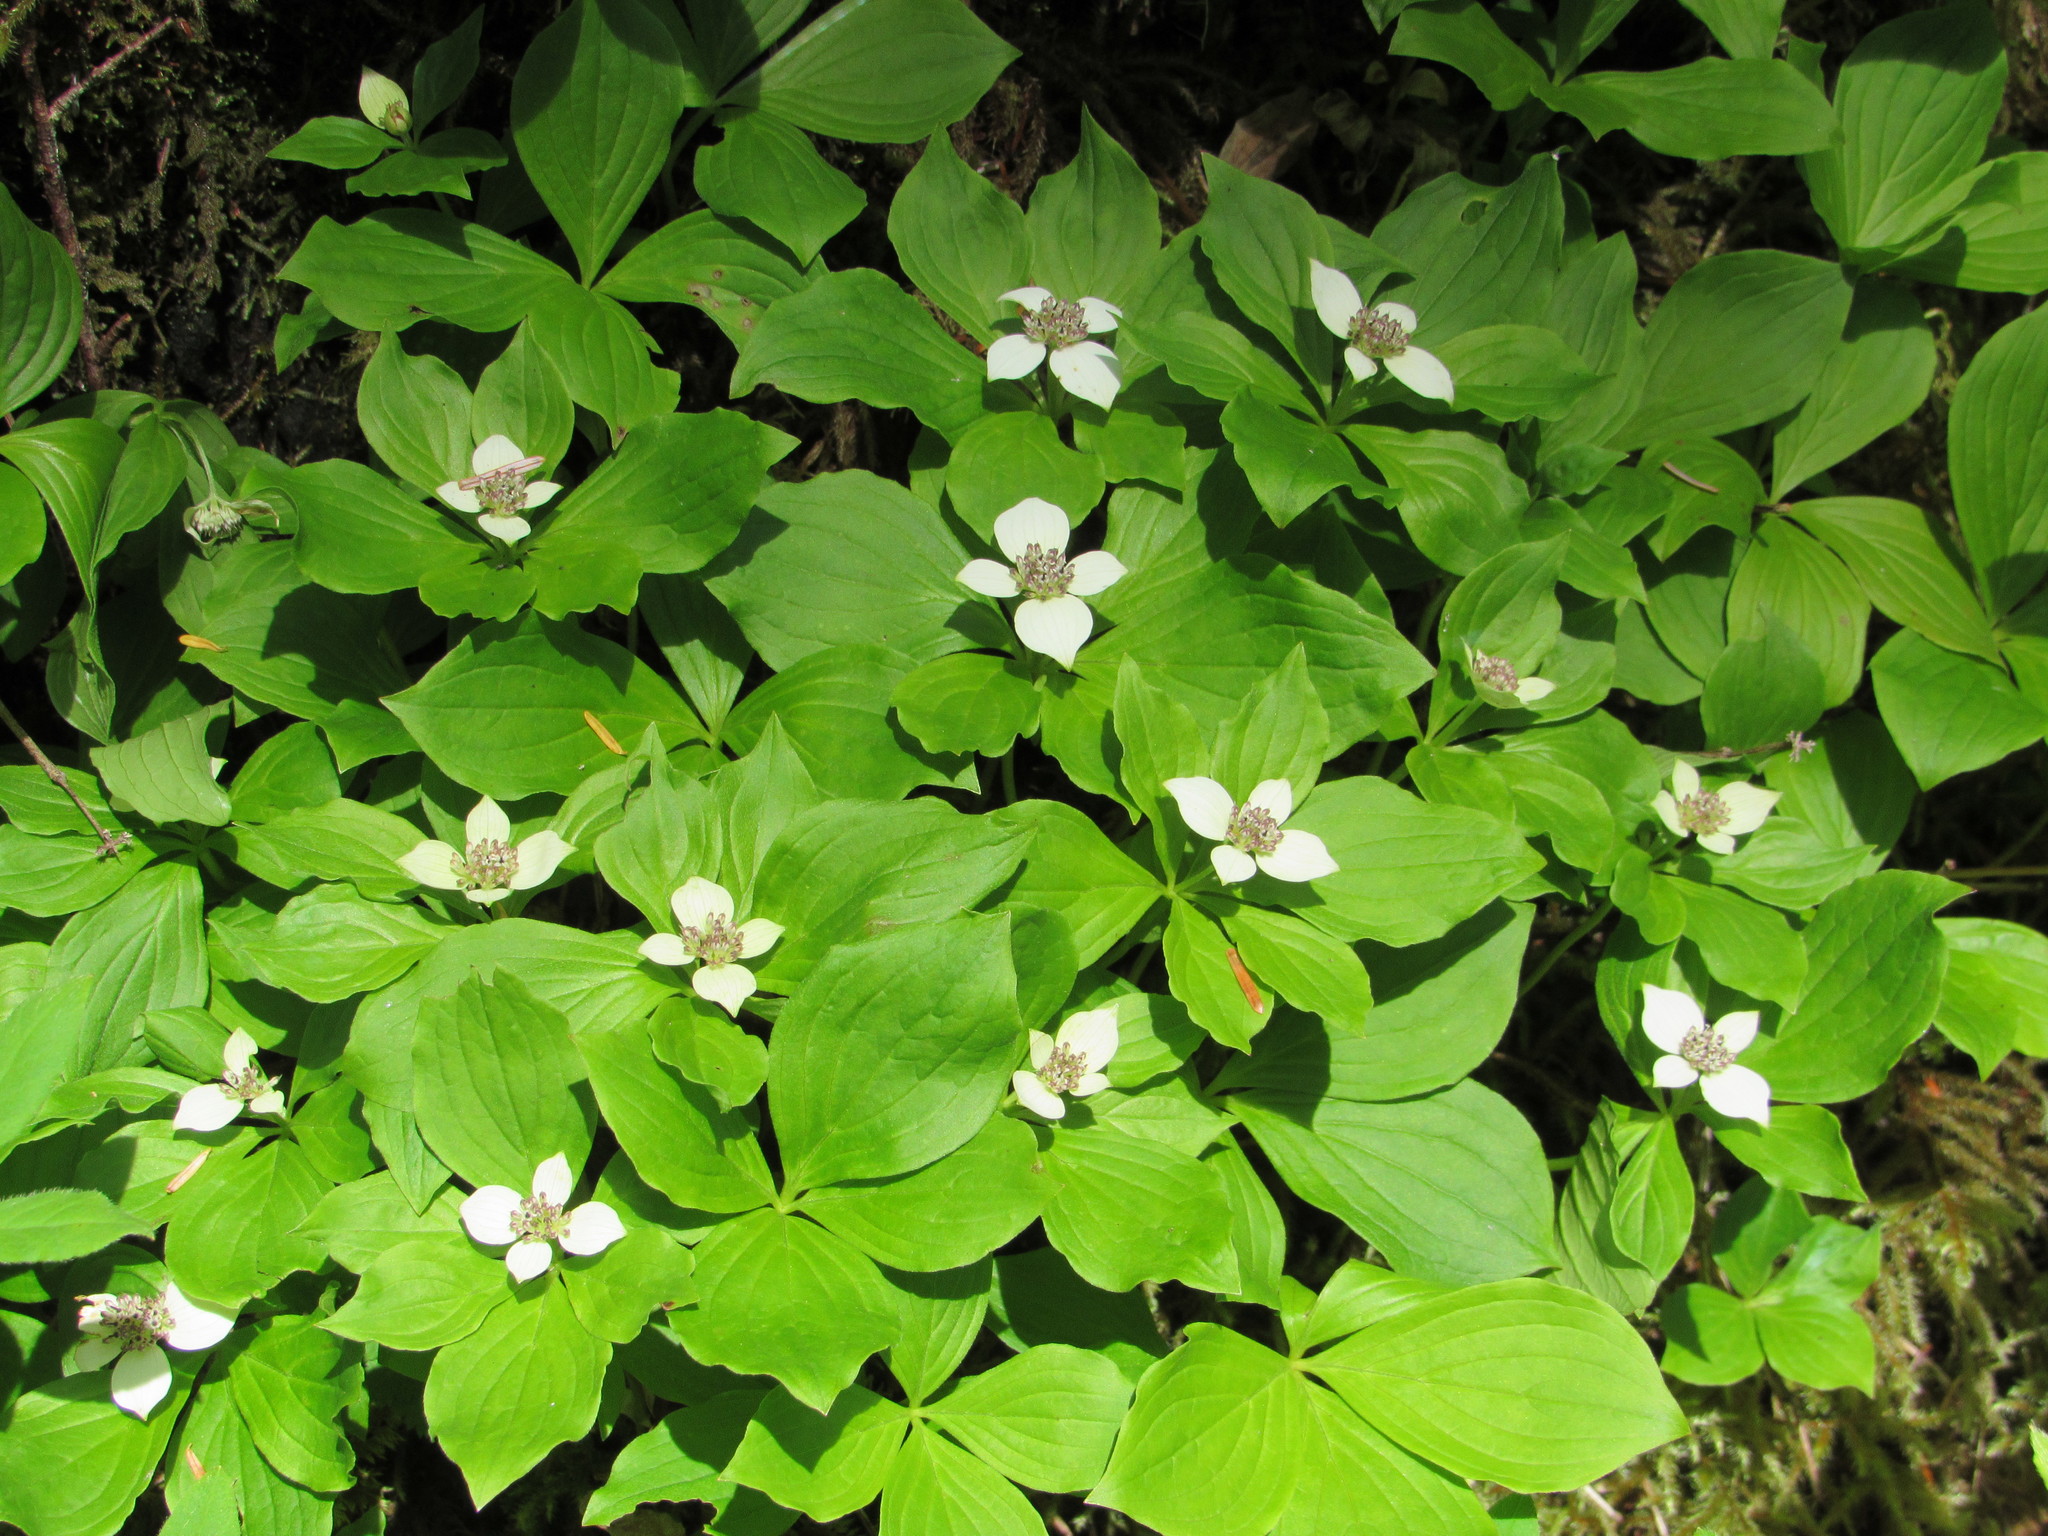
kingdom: Plantae
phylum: Tracheophyta
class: Magnoliopsida
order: Cornales
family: Cornaceae
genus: Cornus
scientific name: Cornus unalaschkensis
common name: Alaska bunchberry
